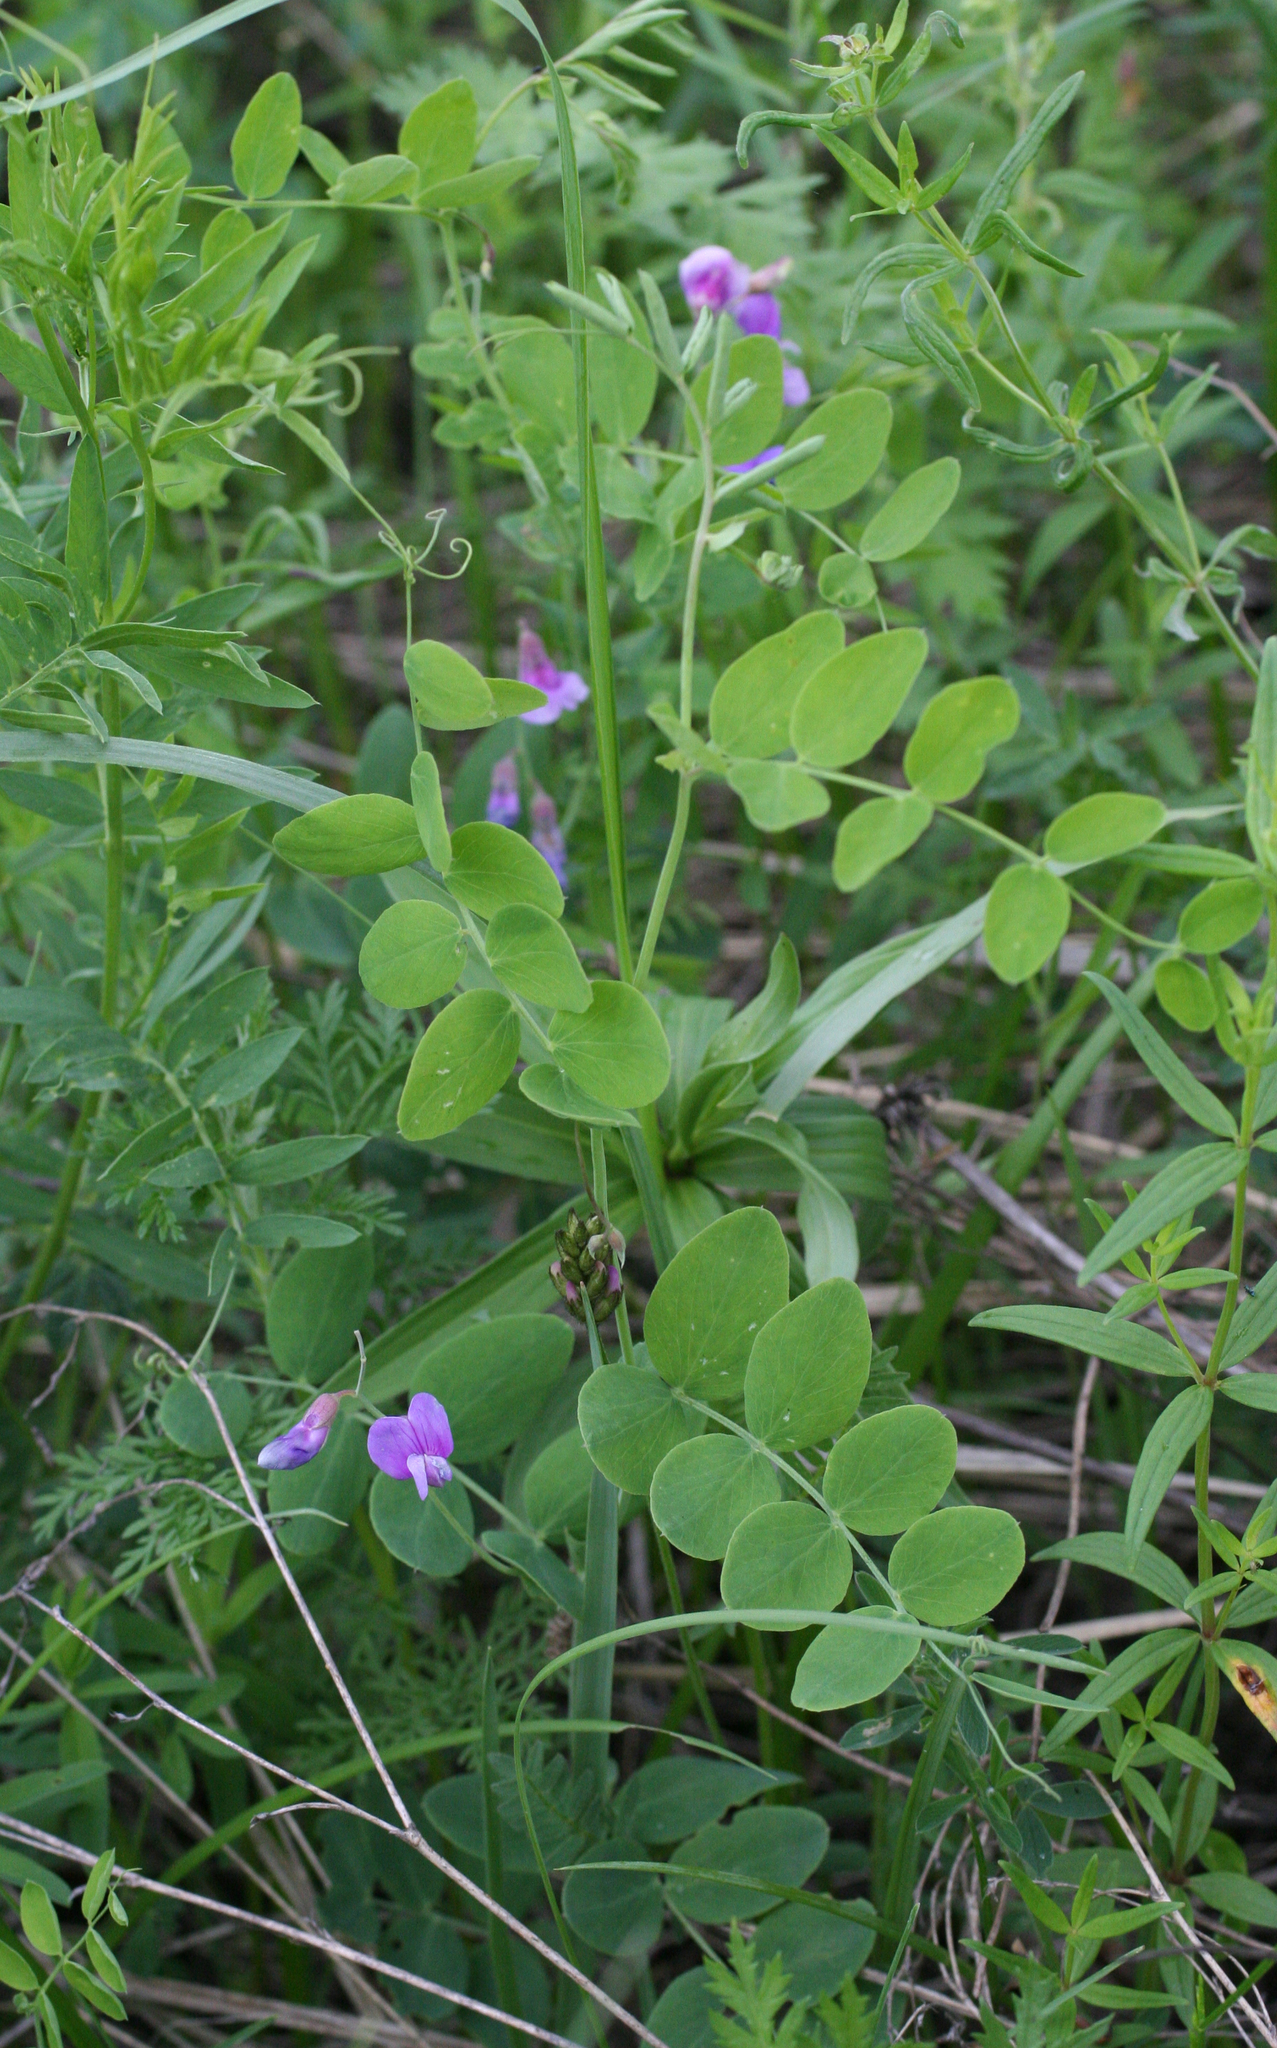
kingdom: Plantae
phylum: Tracheophyta
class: Magnoliopsida
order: Fabales
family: Fabaceae
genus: Lathyrus
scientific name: Lathyrus humilis
